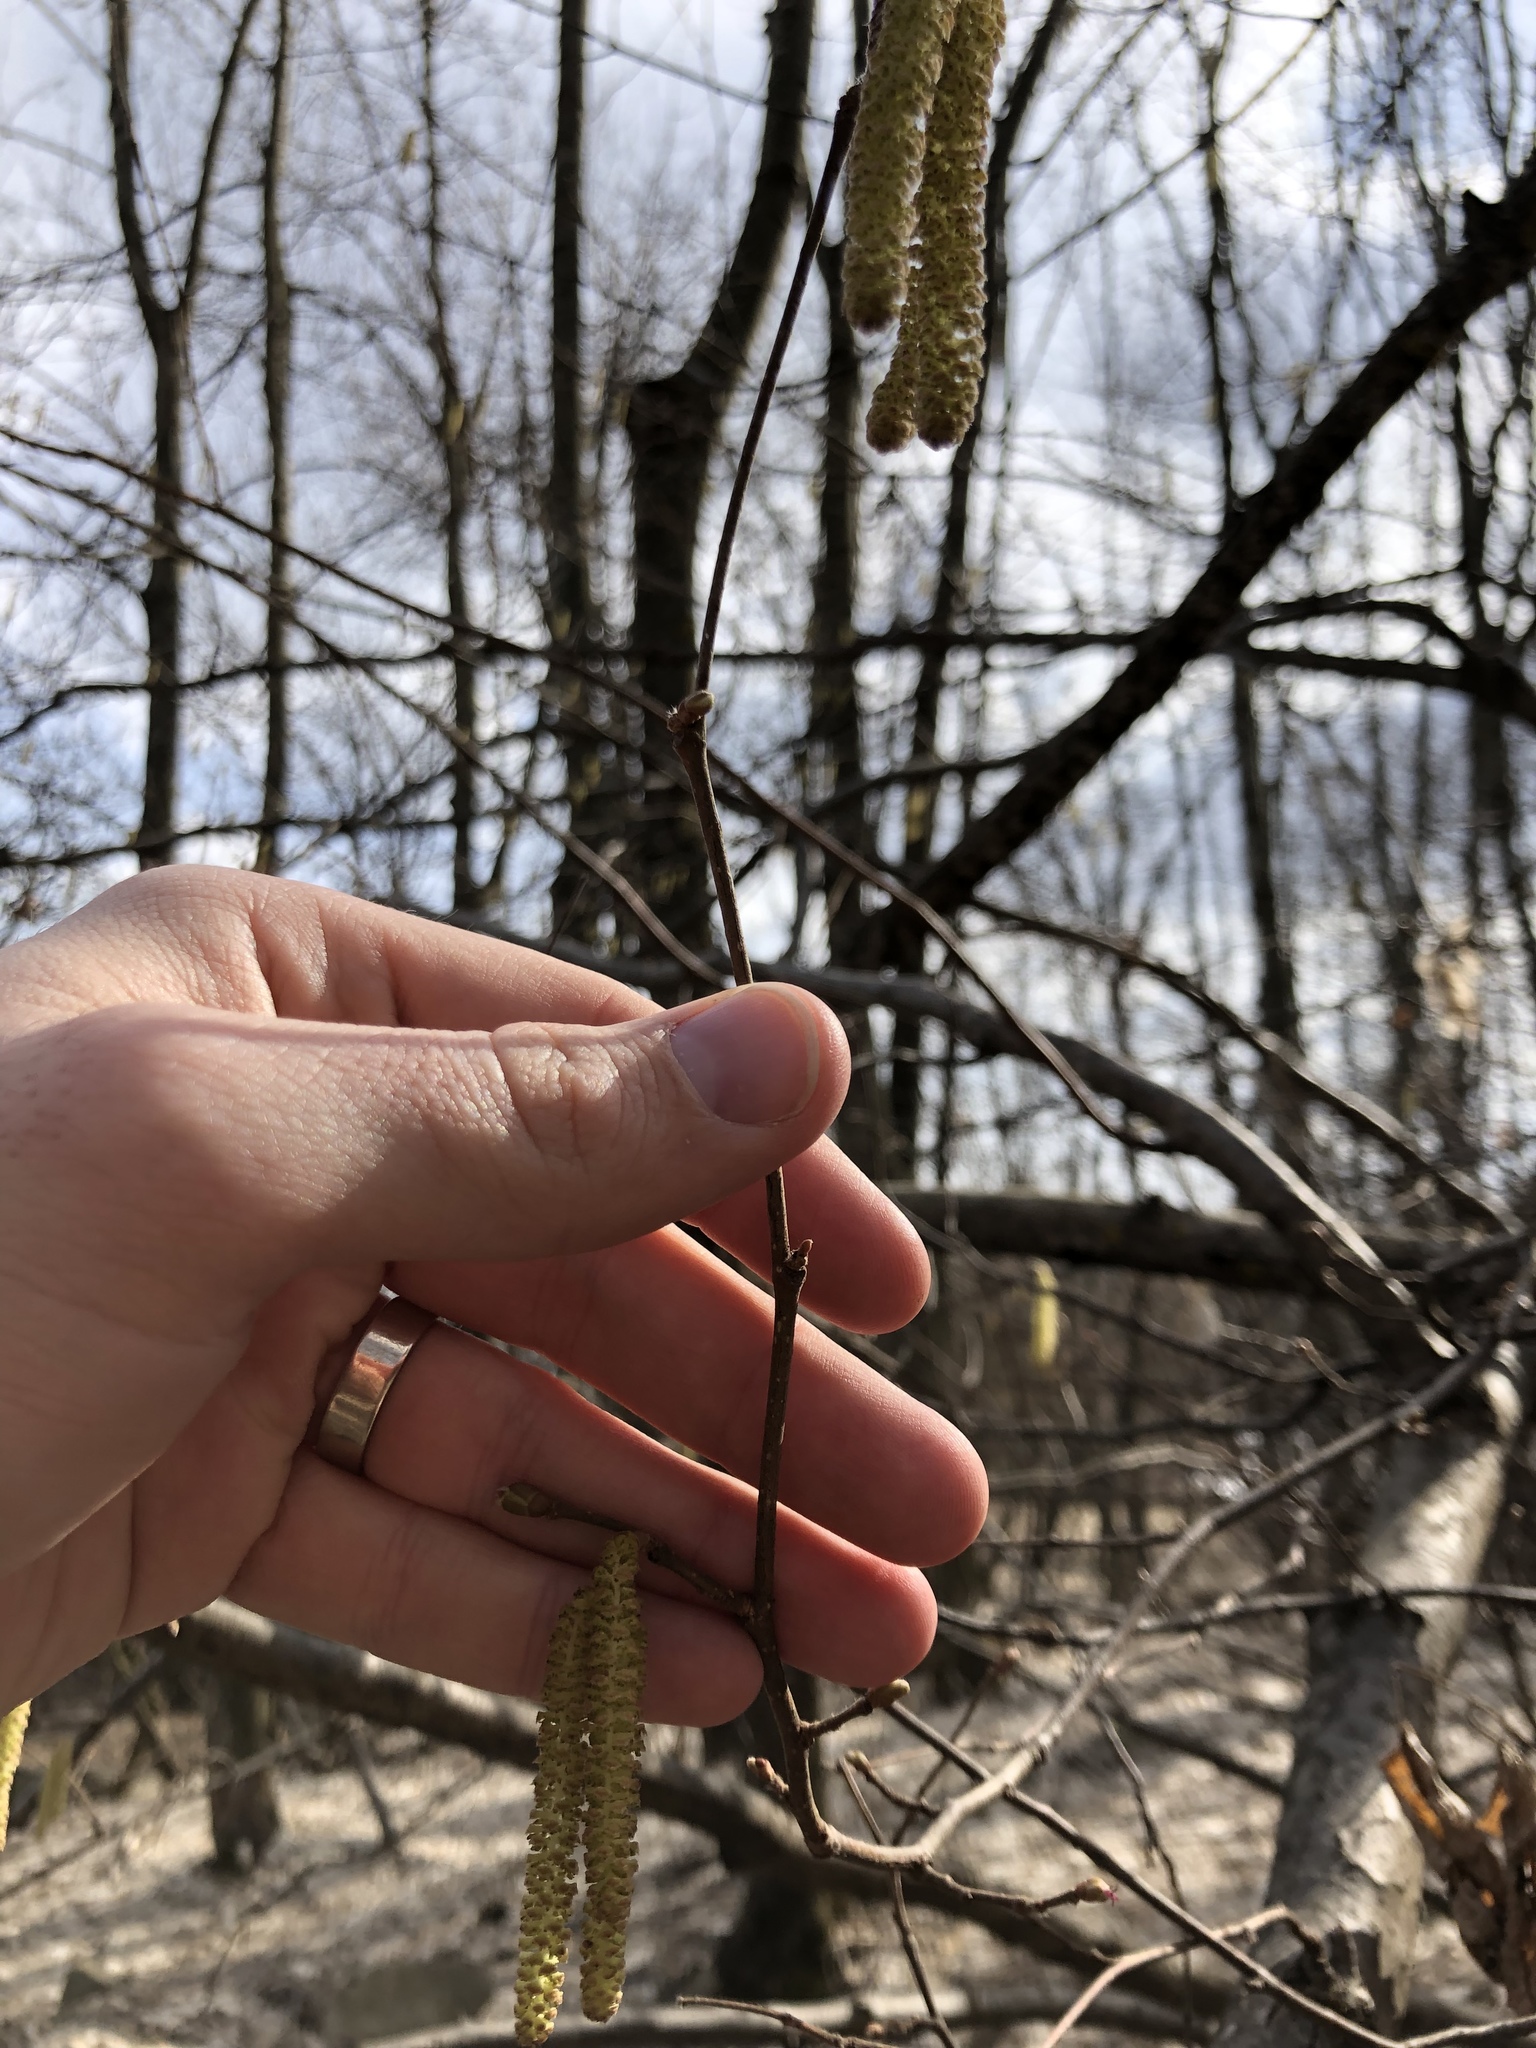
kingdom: Plantae
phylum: Tracheophyta
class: Magnoliopsida
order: Fagales
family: Betulaceae
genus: Corylus
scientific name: Corylus avellana
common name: European hazel
